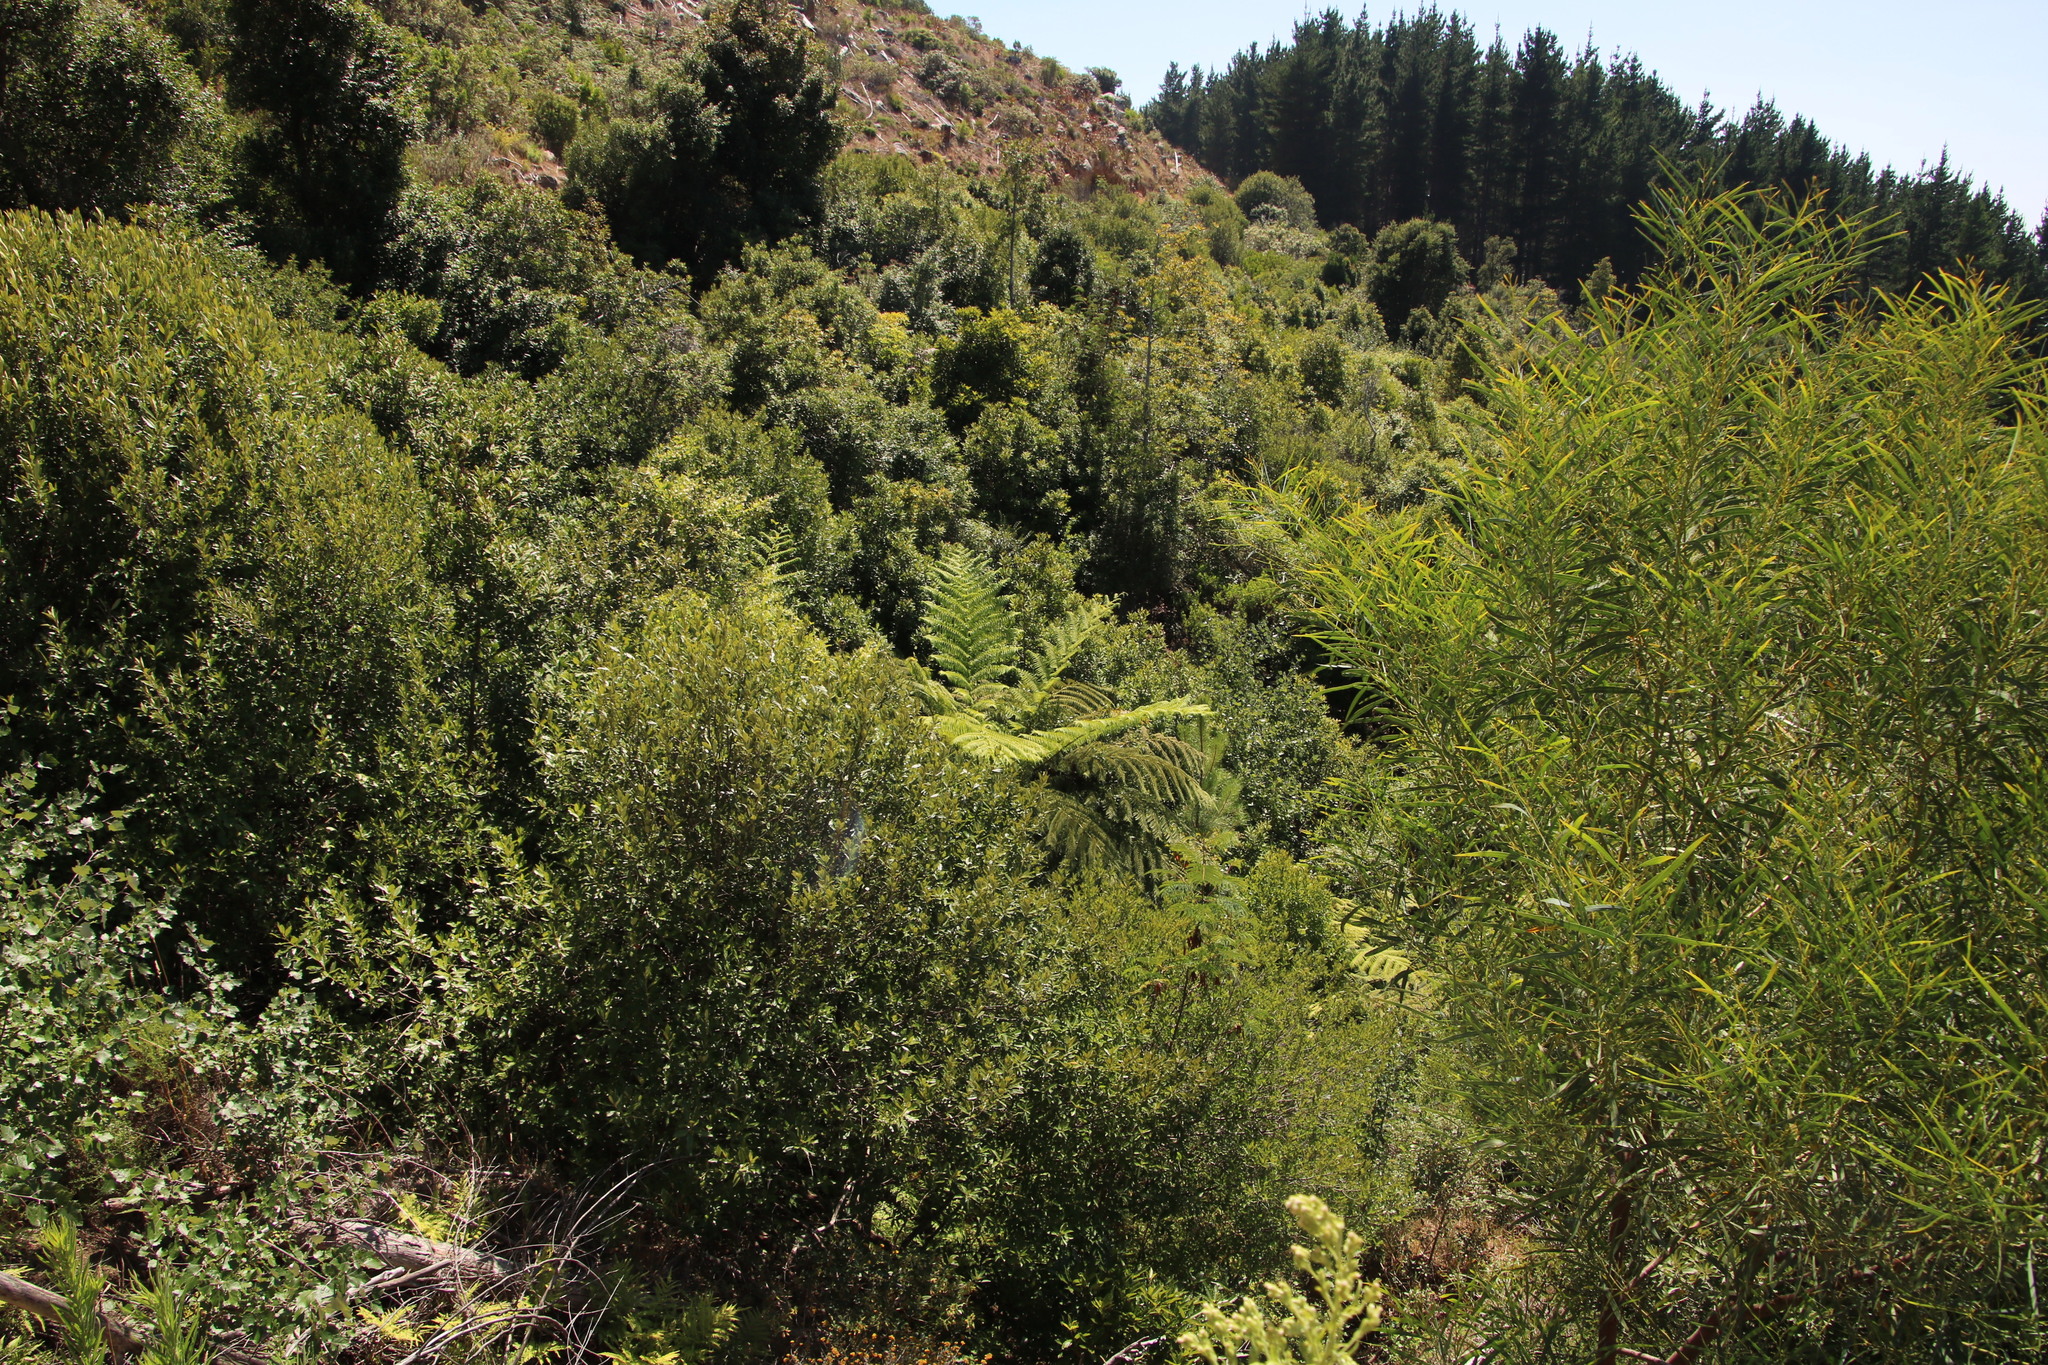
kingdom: Plantae
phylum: Tracheophyta
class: Polypodiopsida
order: Cyatheales
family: Cyatheaceae
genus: Sphaeropteris
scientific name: Sphaeropteris cooperi
